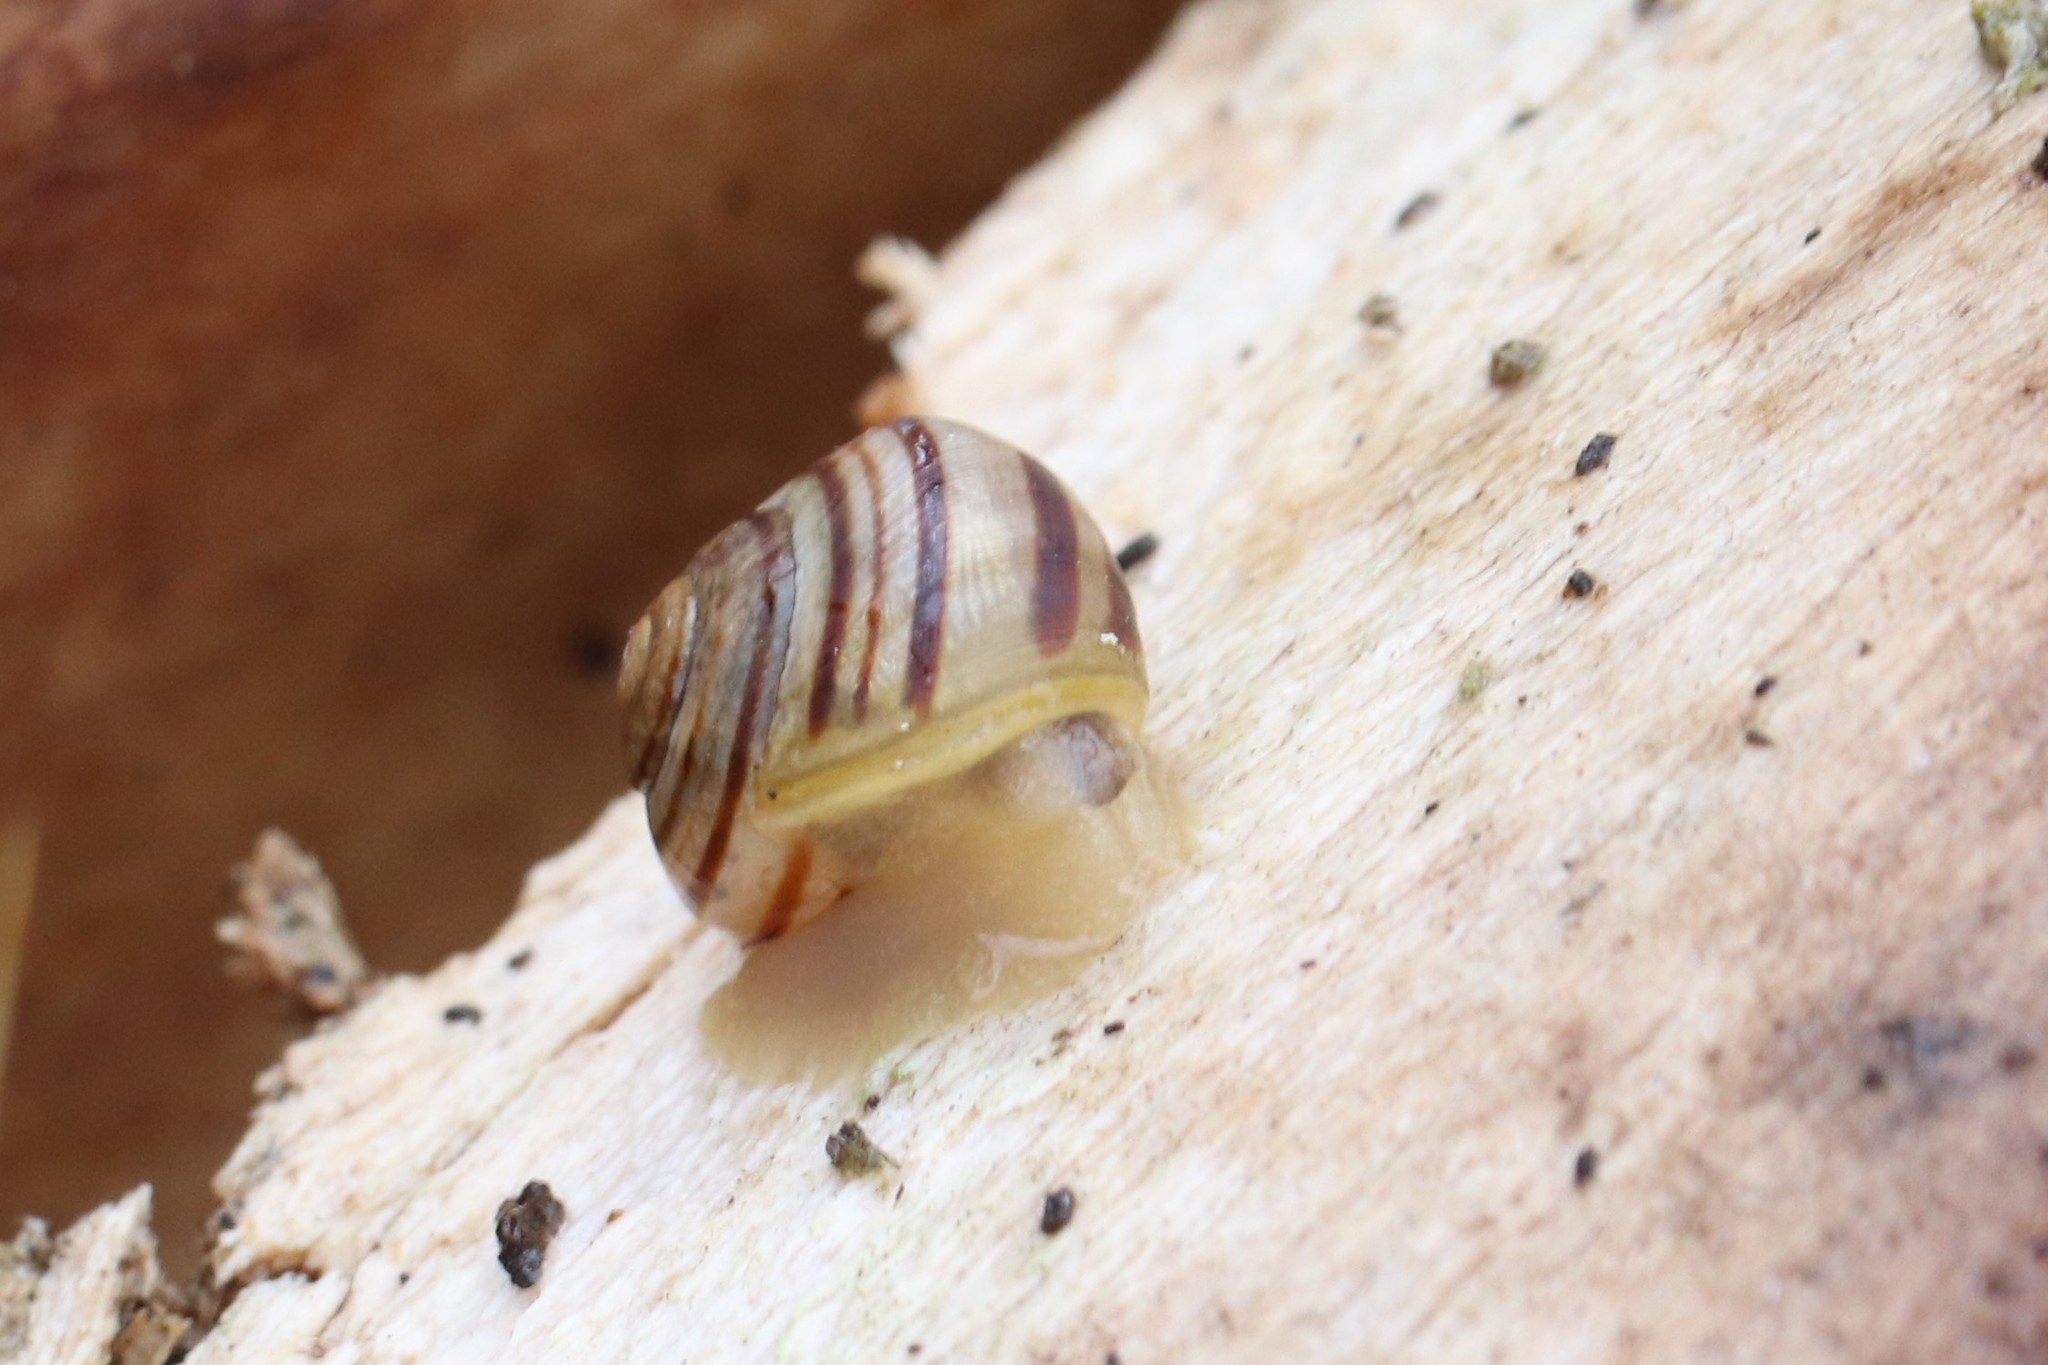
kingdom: Animalia
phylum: Mollusca
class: Gastropoda
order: Stylommatophora
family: Helicidae
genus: Cepaea
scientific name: Cepaea nemoralis
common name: Grovesnail
